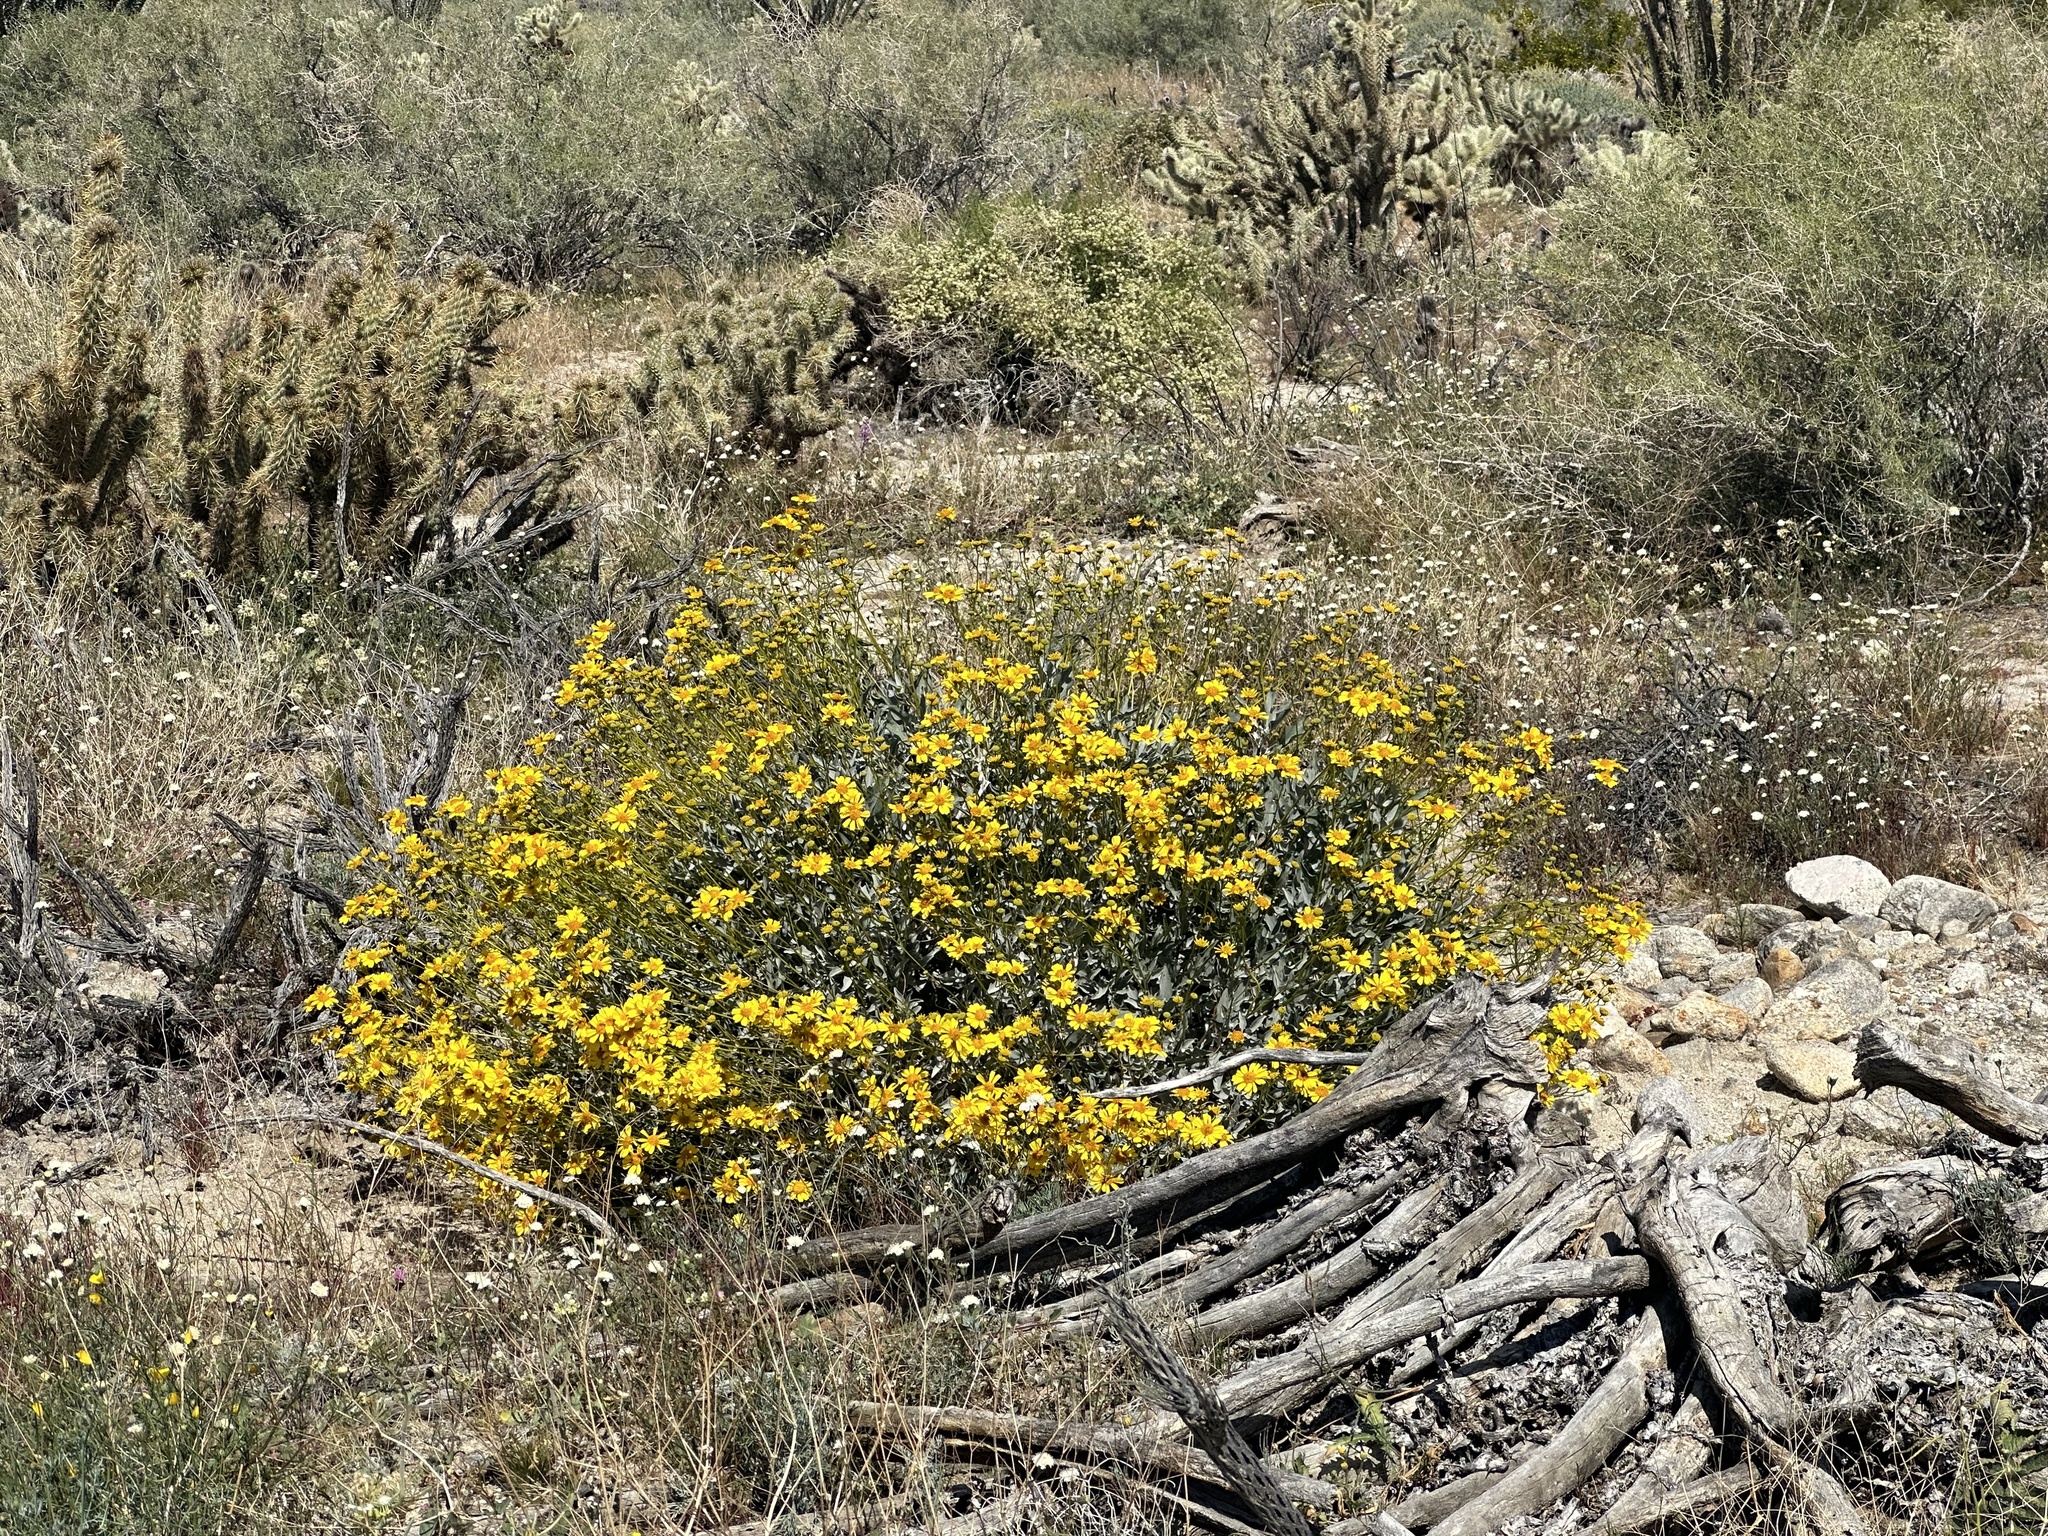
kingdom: Plantae
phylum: Tracheophyta
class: Magnoliopsida
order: Asterales
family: Asteraceae
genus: Encelia
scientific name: Encelia farinosa
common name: Brittlebush
